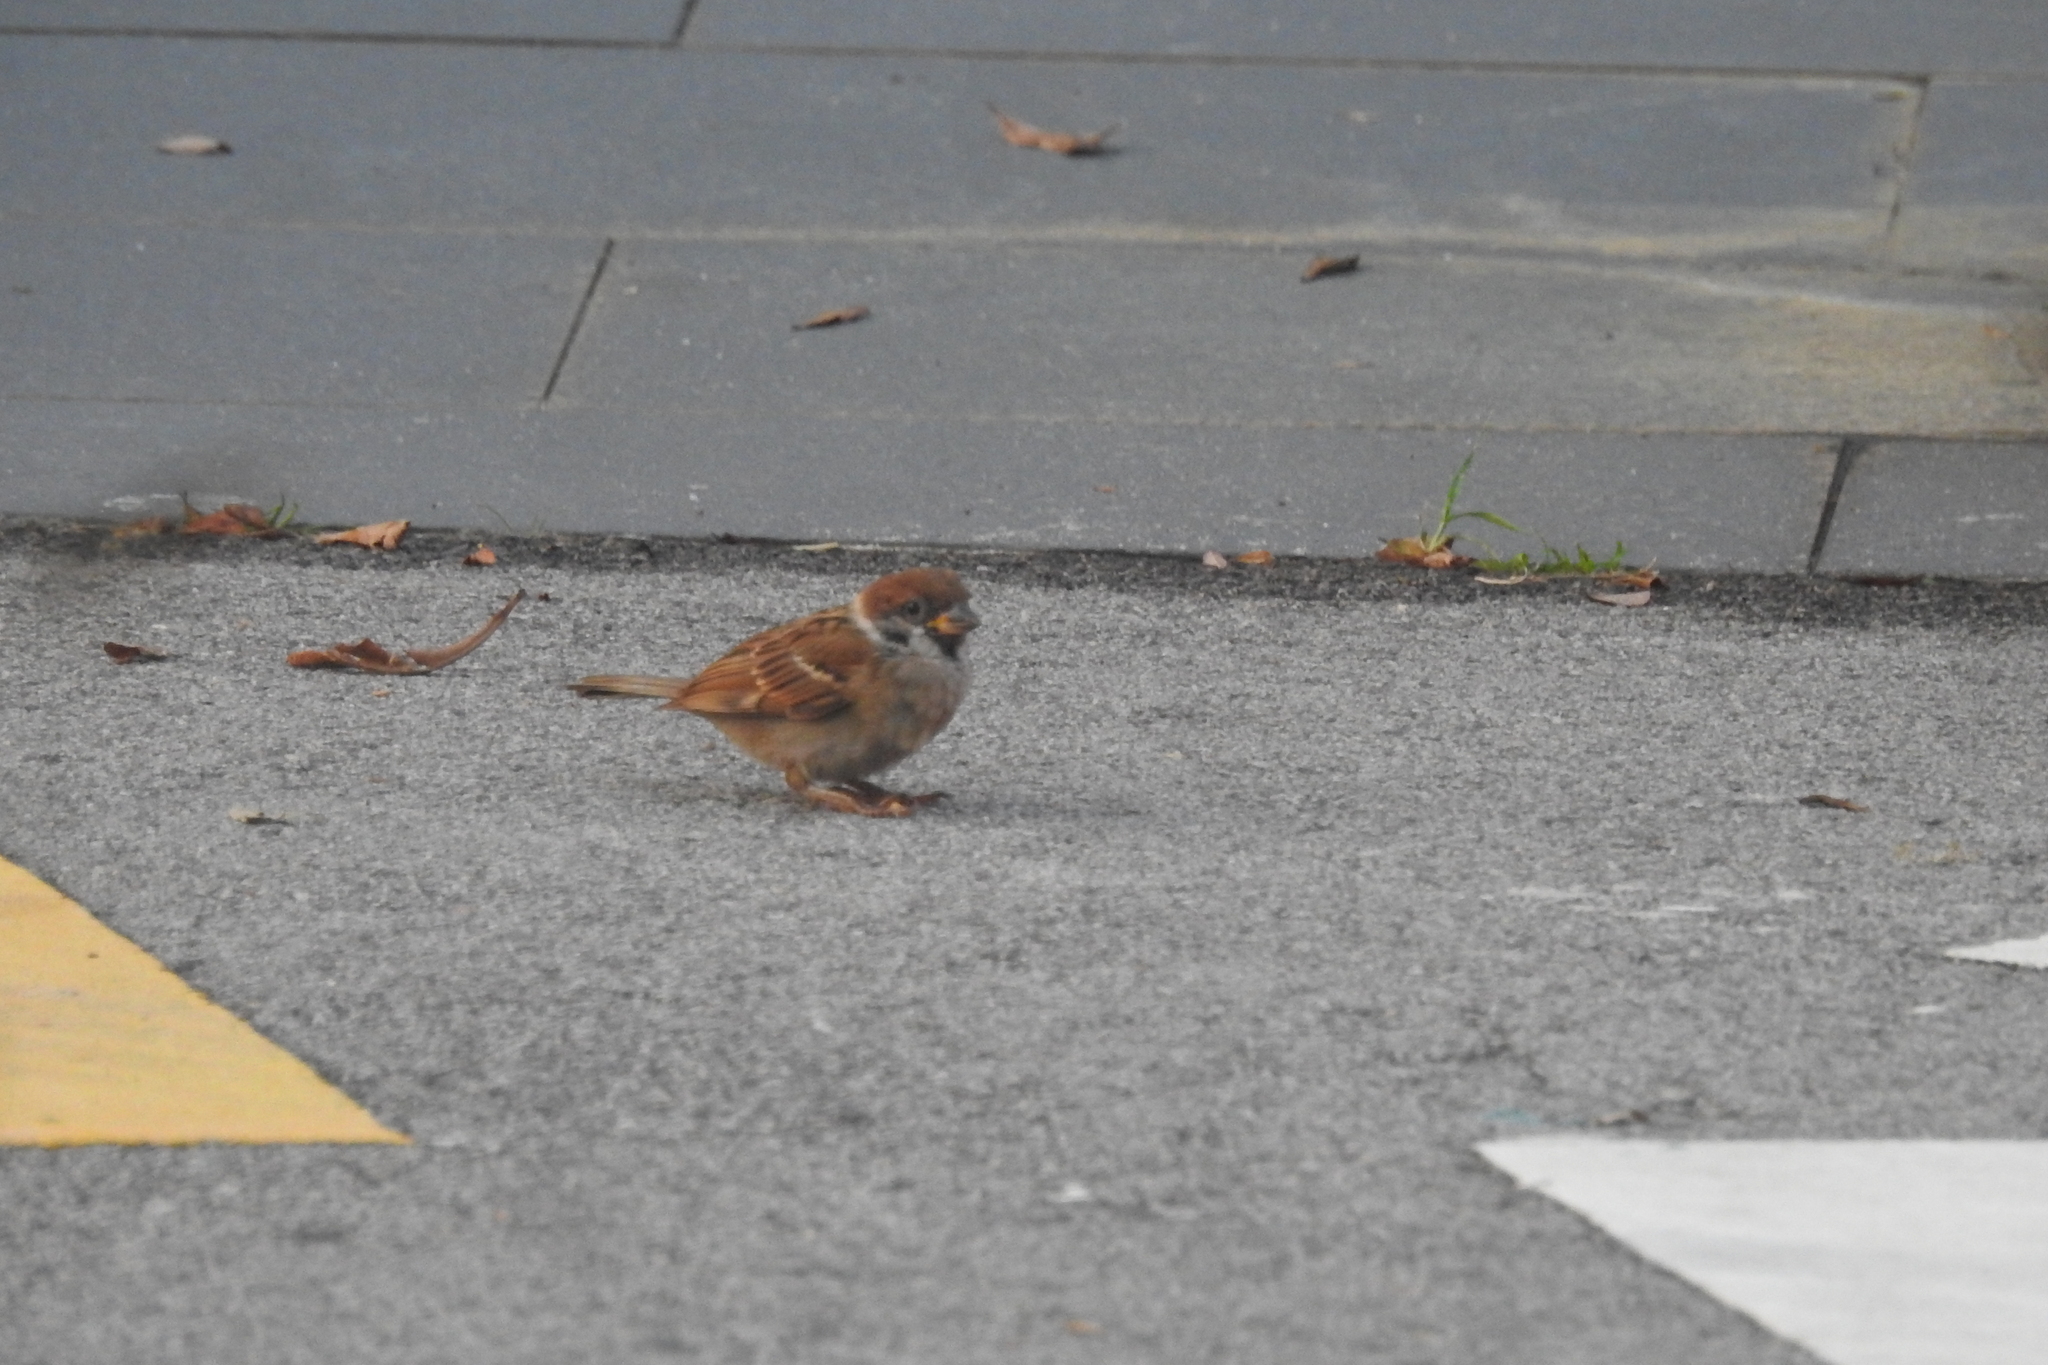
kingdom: Animalia
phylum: Chordata
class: Aves
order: Passeriformes
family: Passeridae
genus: Passer
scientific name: Passer montanus
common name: Eurasian tree sparrow
